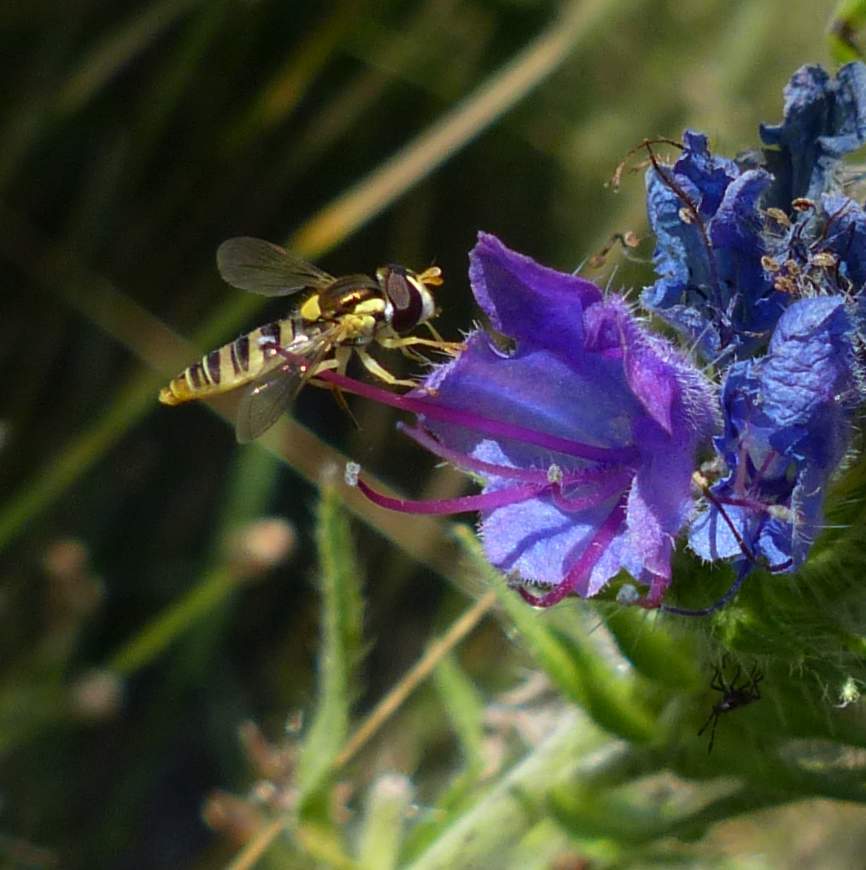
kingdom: Animalia
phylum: Arthropoda
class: Insecta
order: Diptera
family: Syrphidae
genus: Sphaerophoria
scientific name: Sphaerophoria contigua
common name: Tufted globetail
